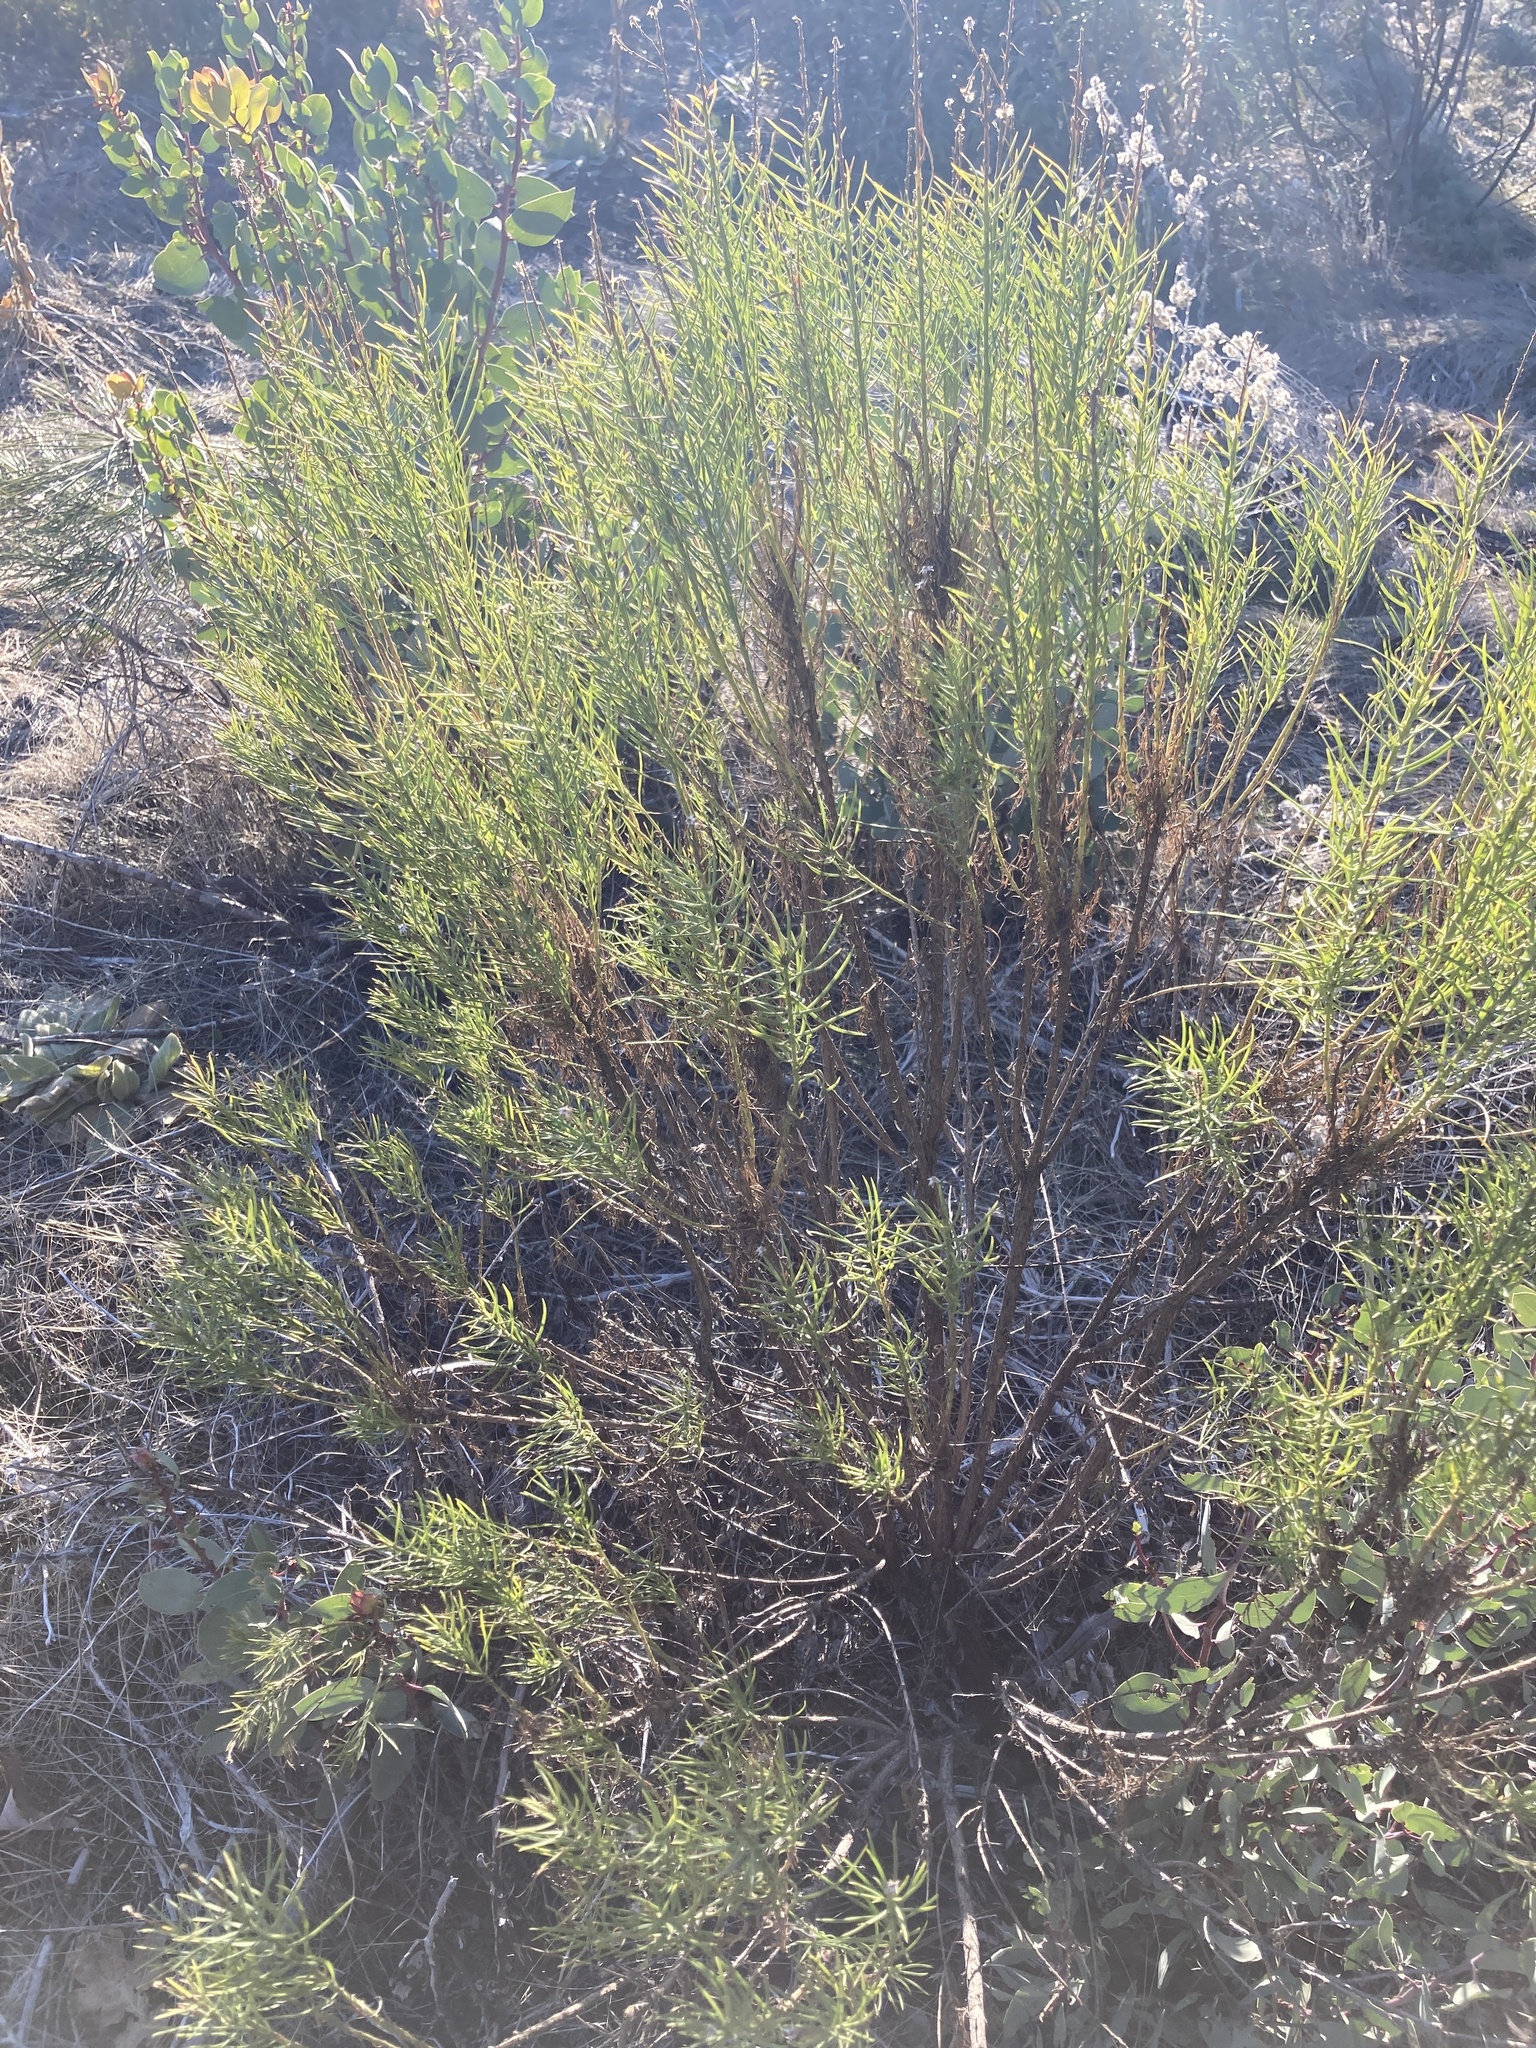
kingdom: Plantae
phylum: Tracheophyta
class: Magnoliopsida
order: Asterales
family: Asteraceae
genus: Ericameria
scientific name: Ericameria arborescens
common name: Goldenfleece
